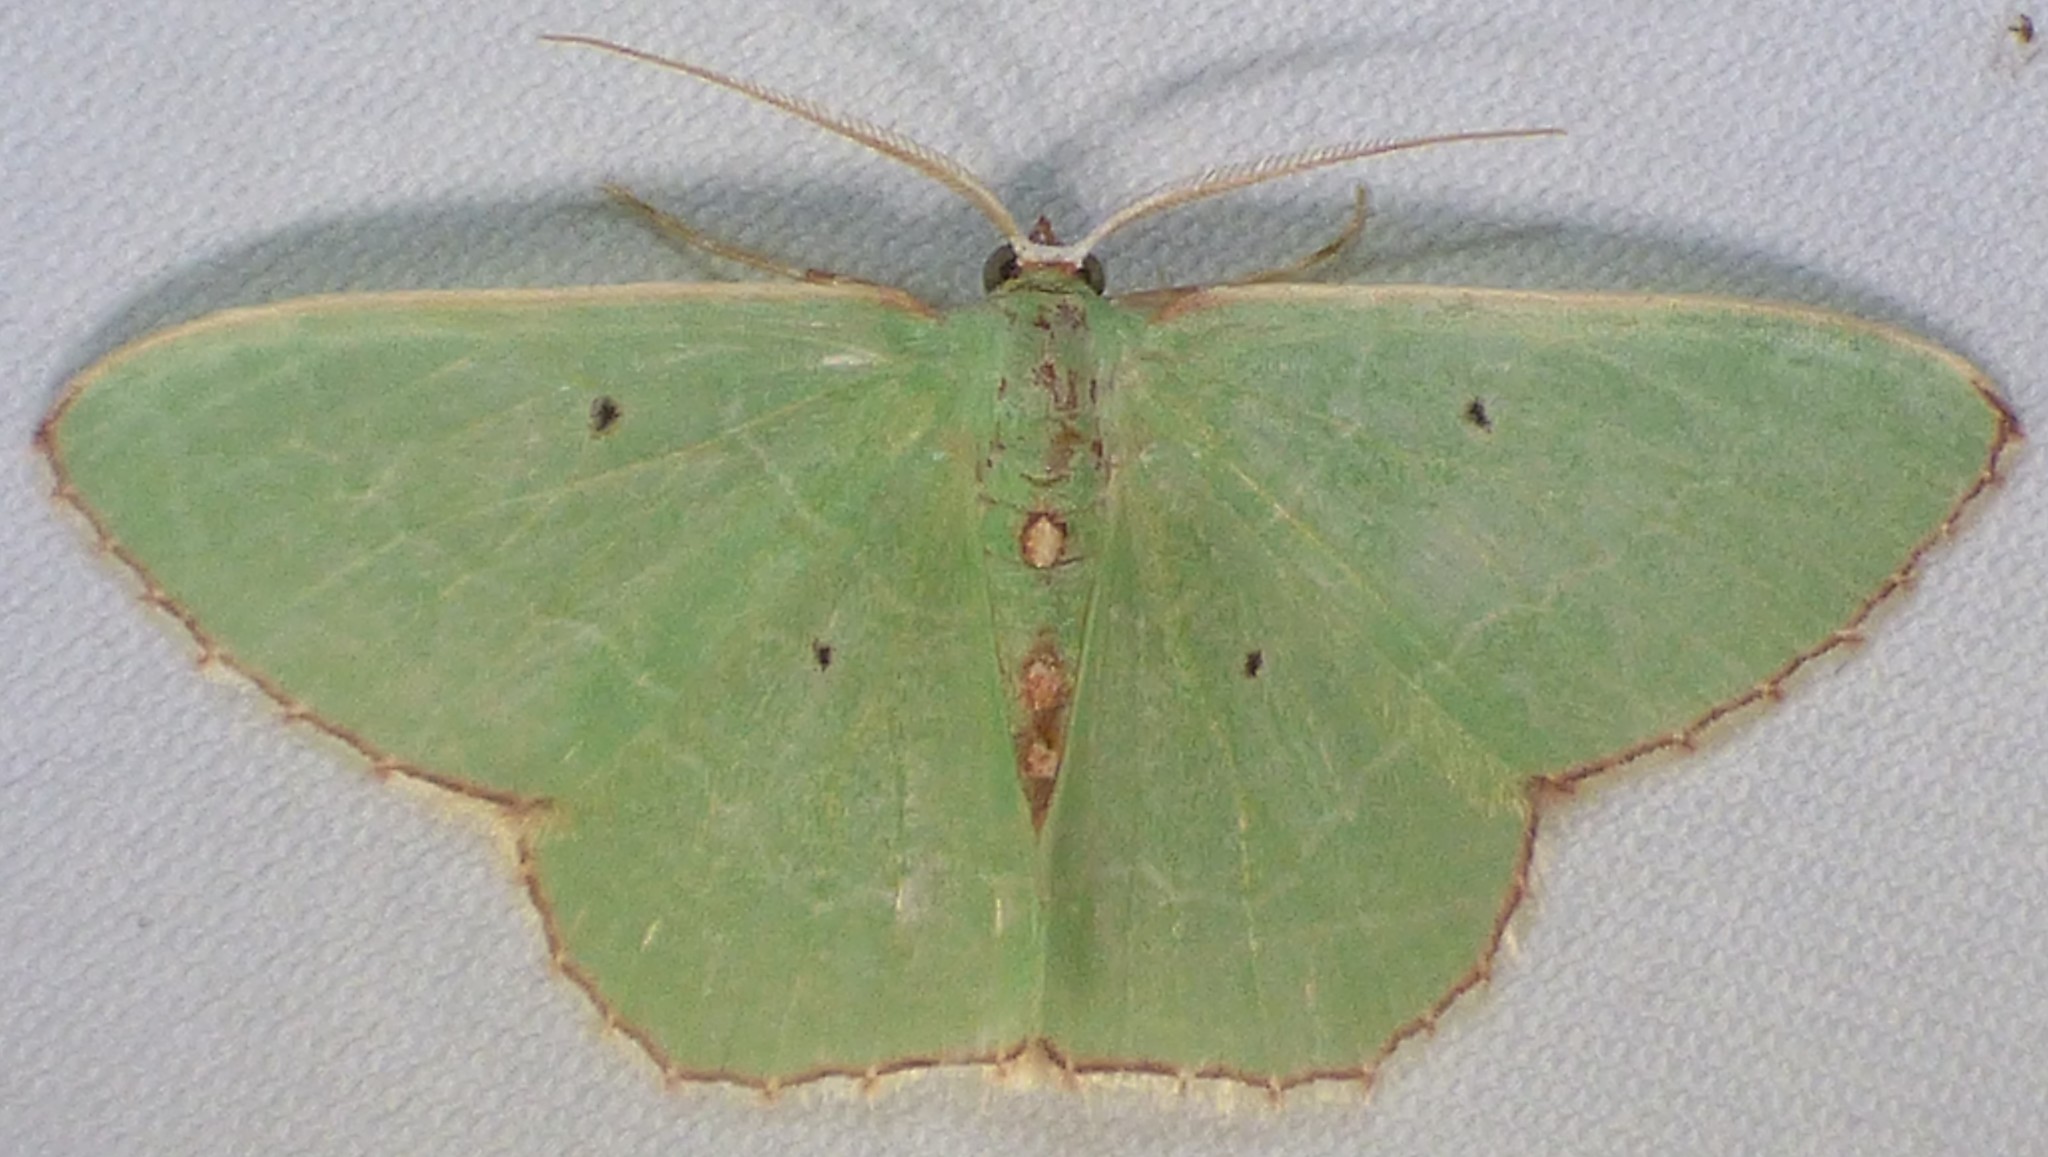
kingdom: Animalia
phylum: Arthropoda
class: Insecta
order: Lepidoptera
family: Geometridae
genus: Nemoria
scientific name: Nemoria lixaria
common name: Red-bordered emerald
